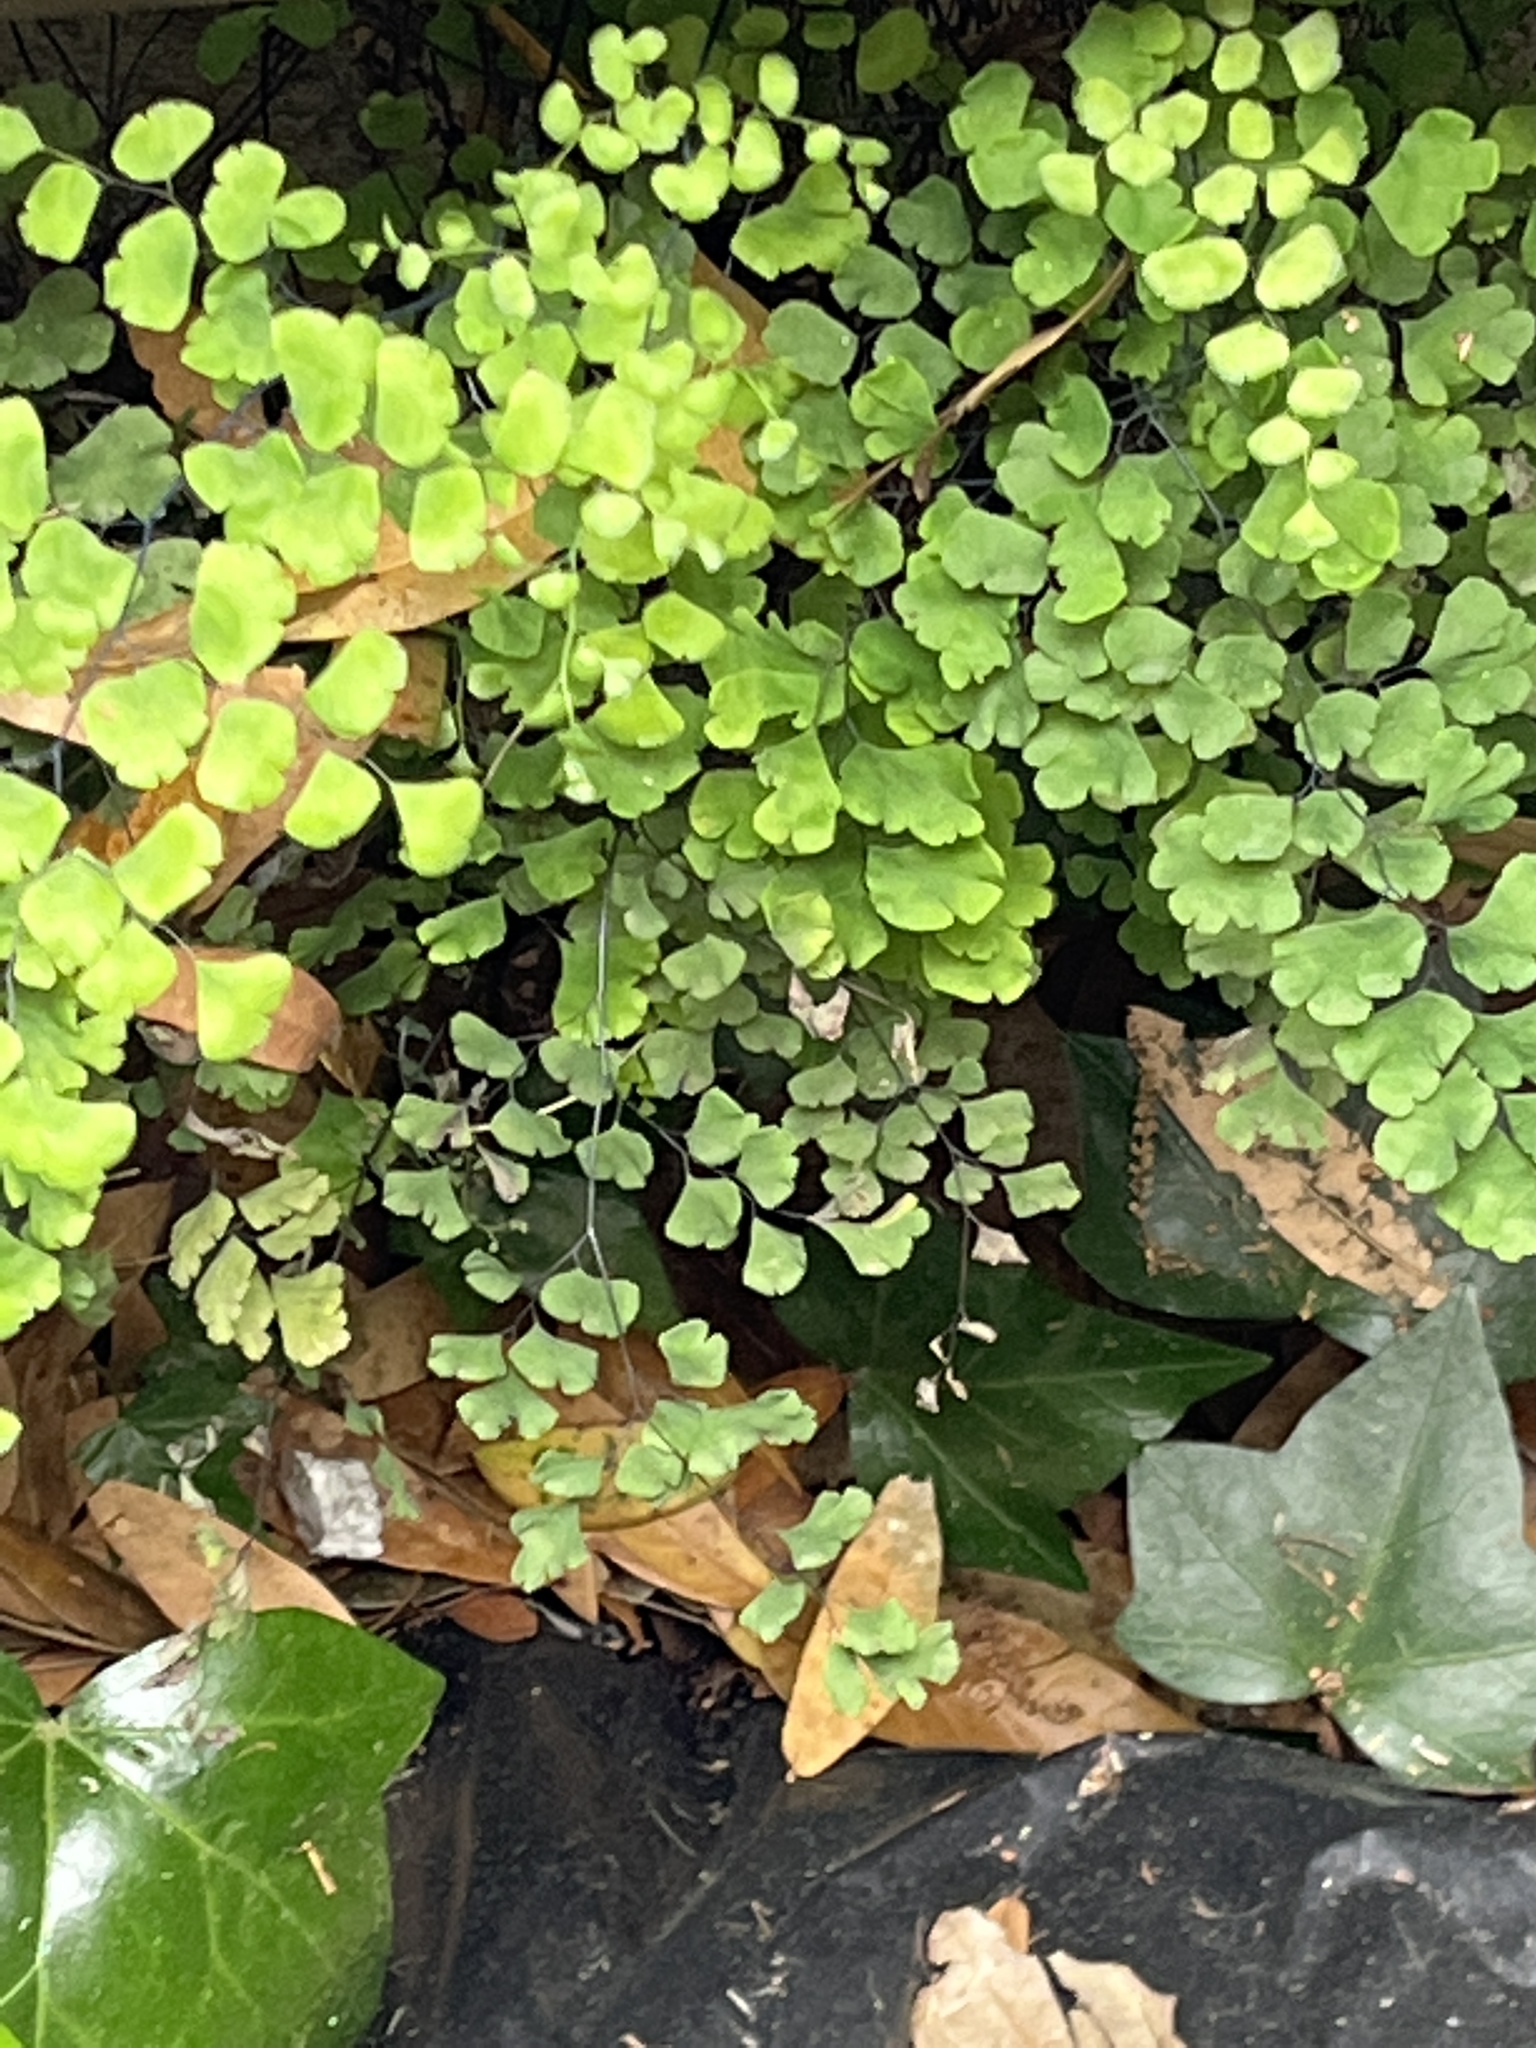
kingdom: Plantae
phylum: Tracheophyta
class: Polypodiopsida
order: Polypodiales
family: Pteridaceae
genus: Adiantum
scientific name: Adiantum capillus-veneris
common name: Maidenhair fern
